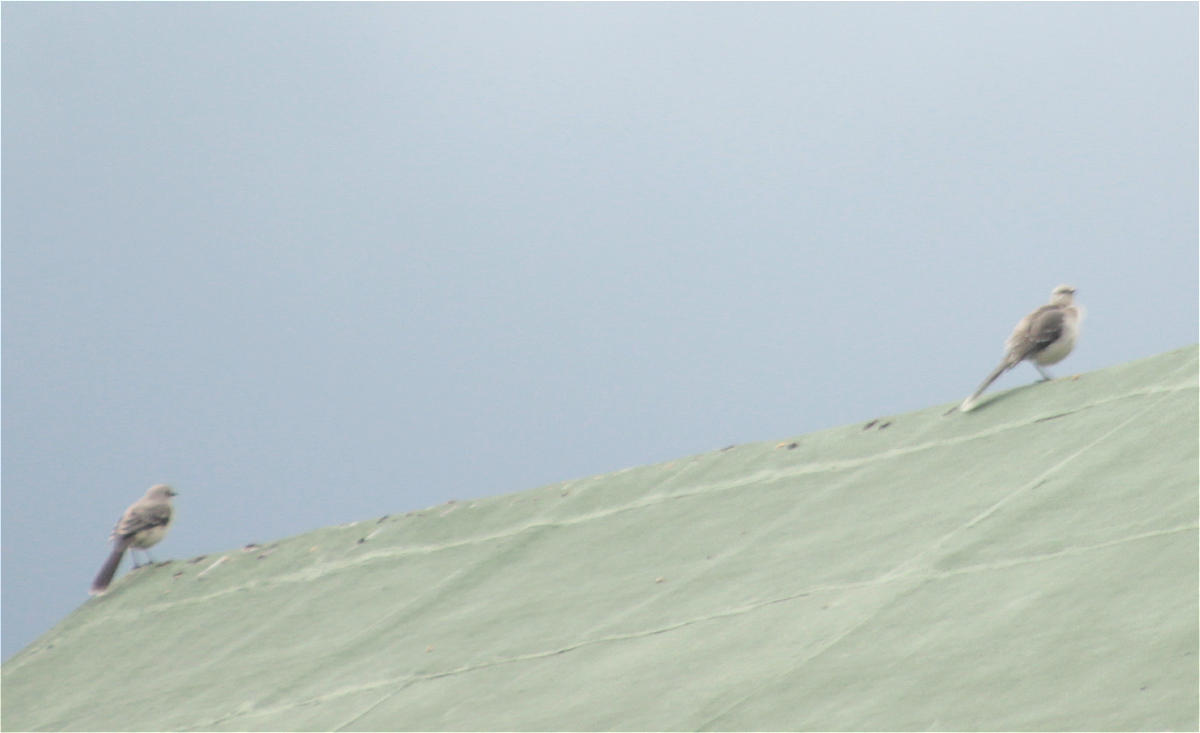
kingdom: Animalia
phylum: Chordata
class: Aves
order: Passeriformes
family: Mimidae
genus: Mimus
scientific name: Mimus gilvus
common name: Tropical mockingbird
